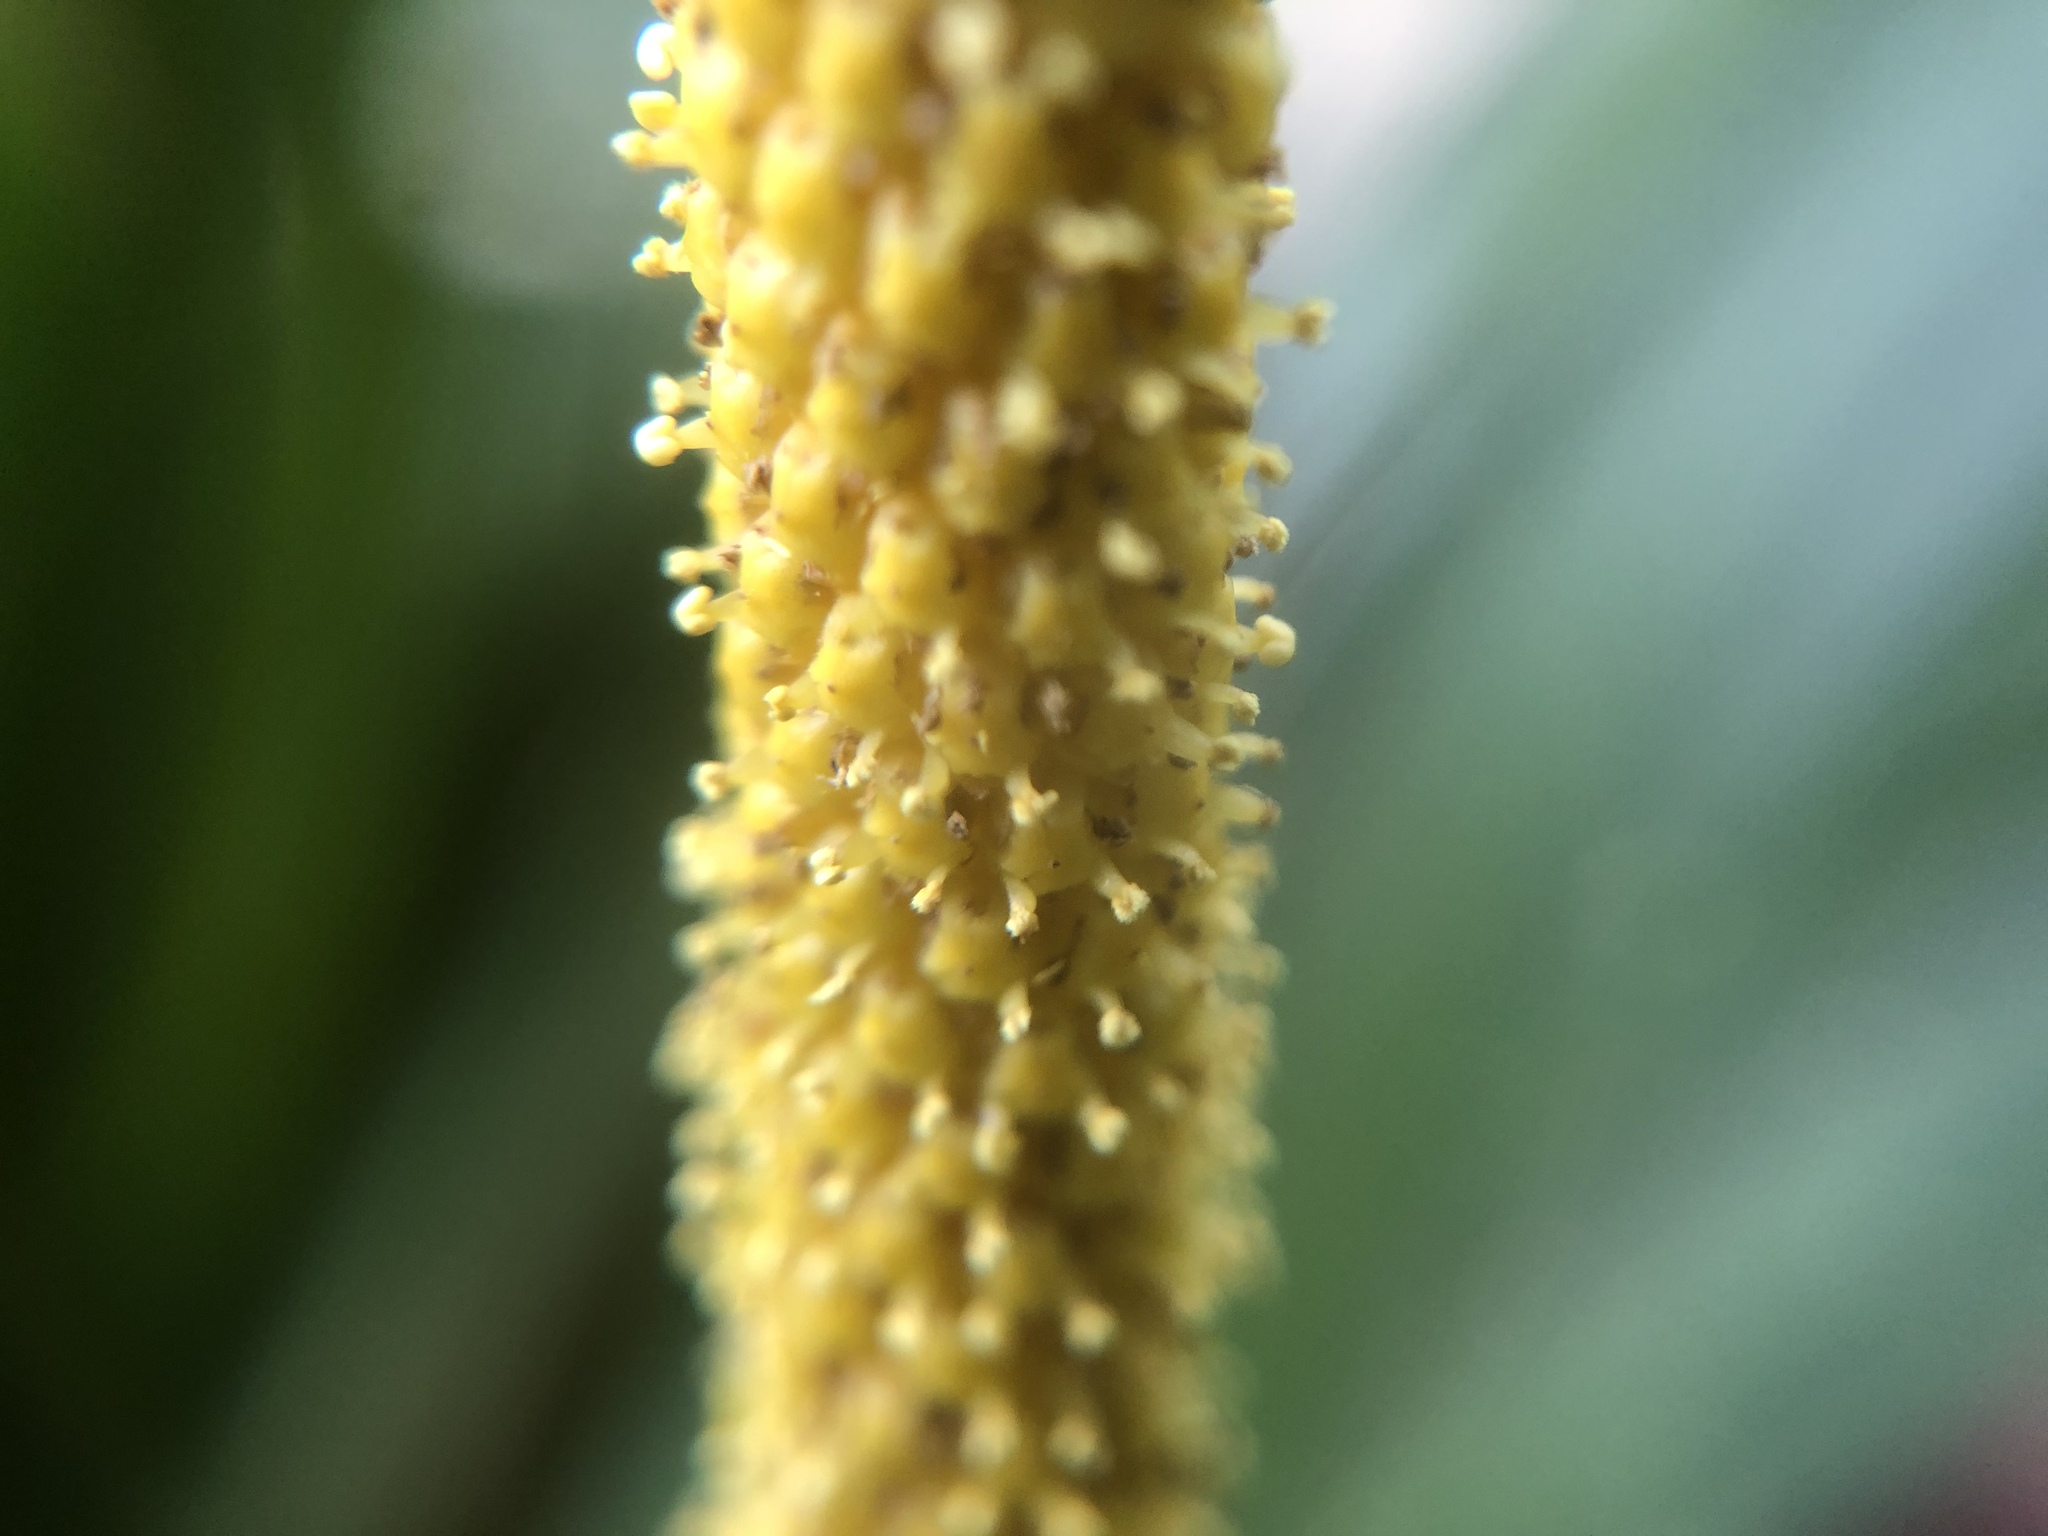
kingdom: Plantae
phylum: Tracheophyta
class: Liliopsida
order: Acorales
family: Acoraceae
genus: Acorus
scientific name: Acorus gramineus
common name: Slender sweet-flag
